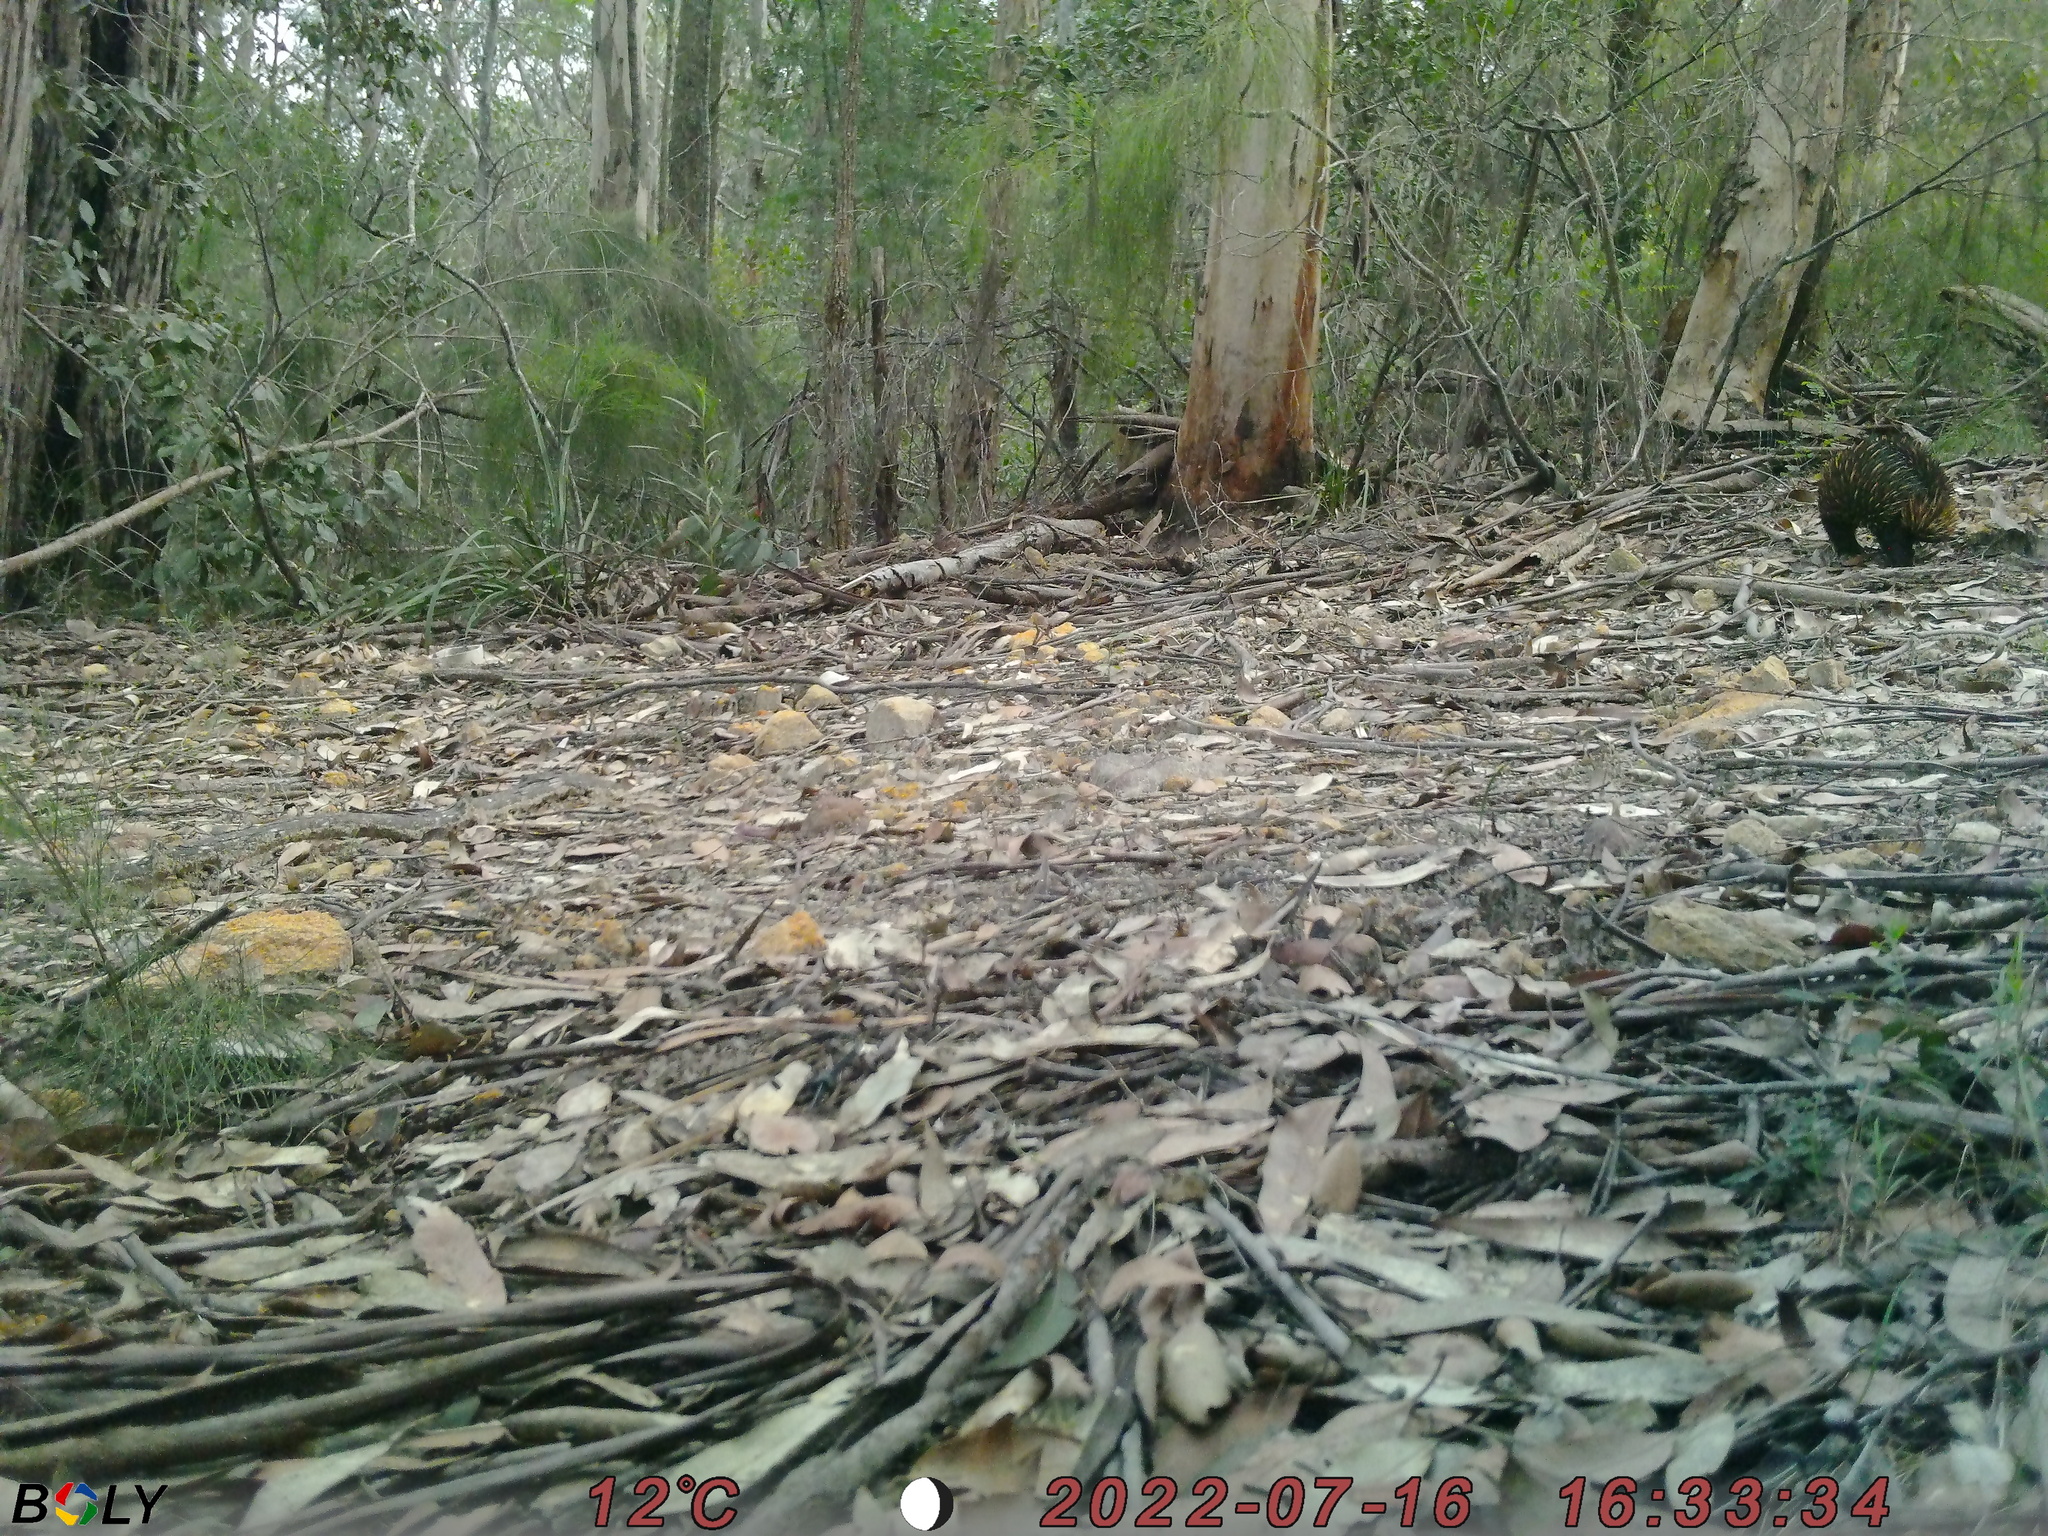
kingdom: Animalia
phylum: Chordata
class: Mammalia
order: Monotremata
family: Tachyglossidae
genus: Tachyglossus
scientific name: Tachyglossus aculeatus
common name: Short-beaked echidna
